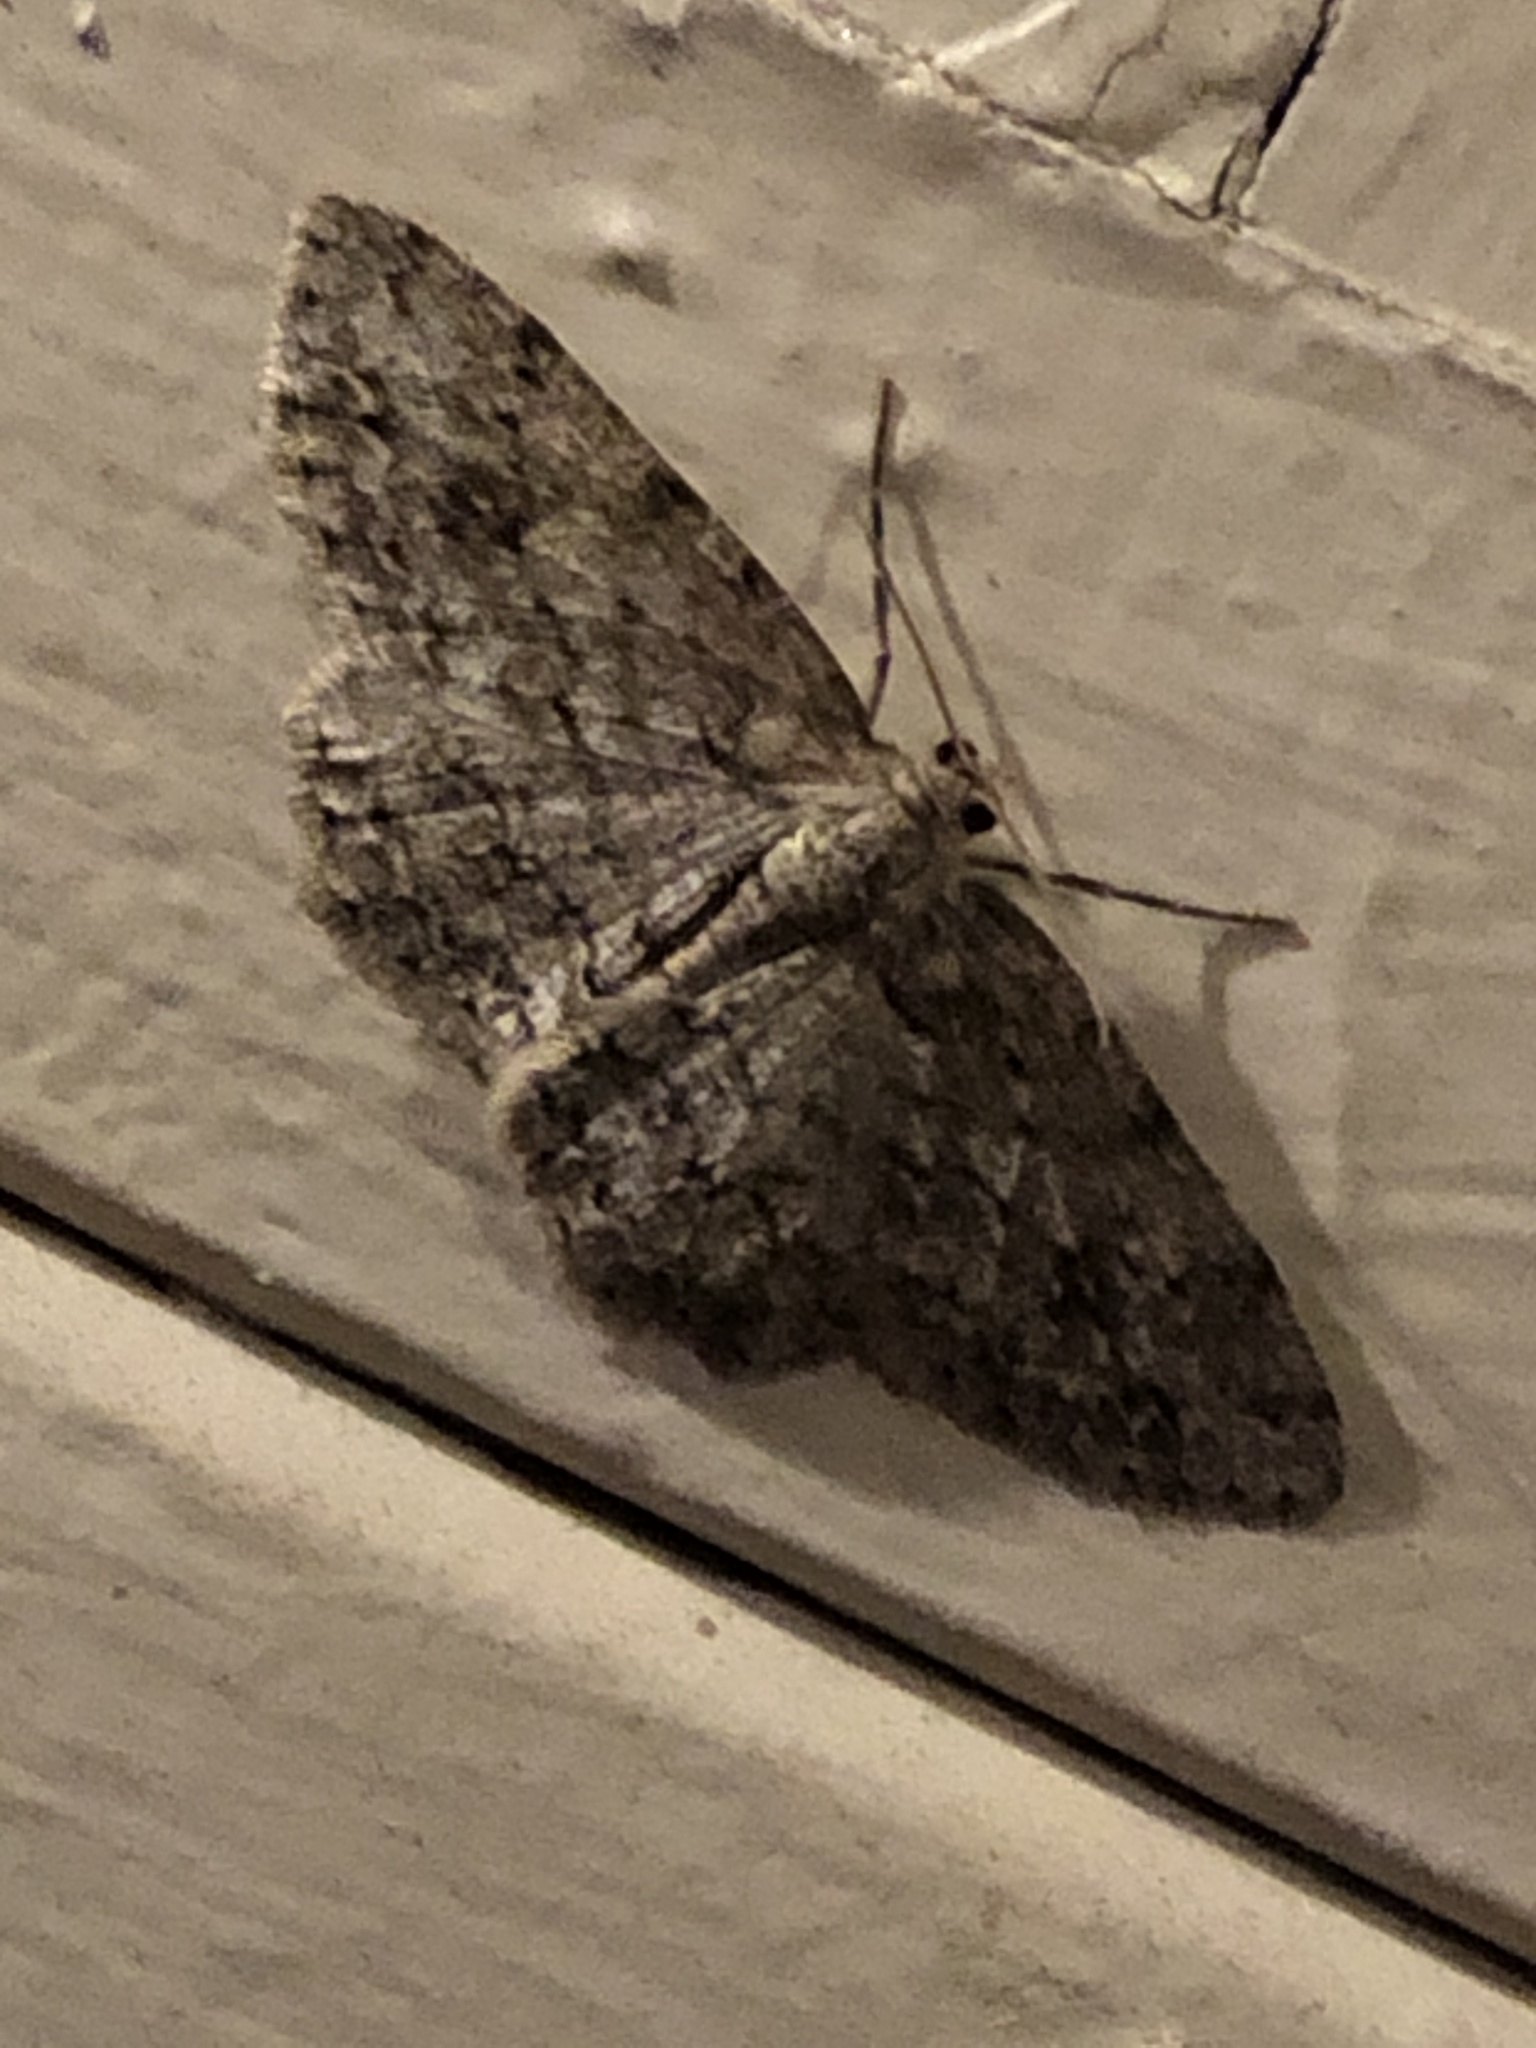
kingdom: Animalia
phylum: Arthropoda
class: Insecta
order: Lepidoptera
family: Geometridae
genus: Ectropis
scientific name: Ectropis crepuscularia
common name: Engrailed
